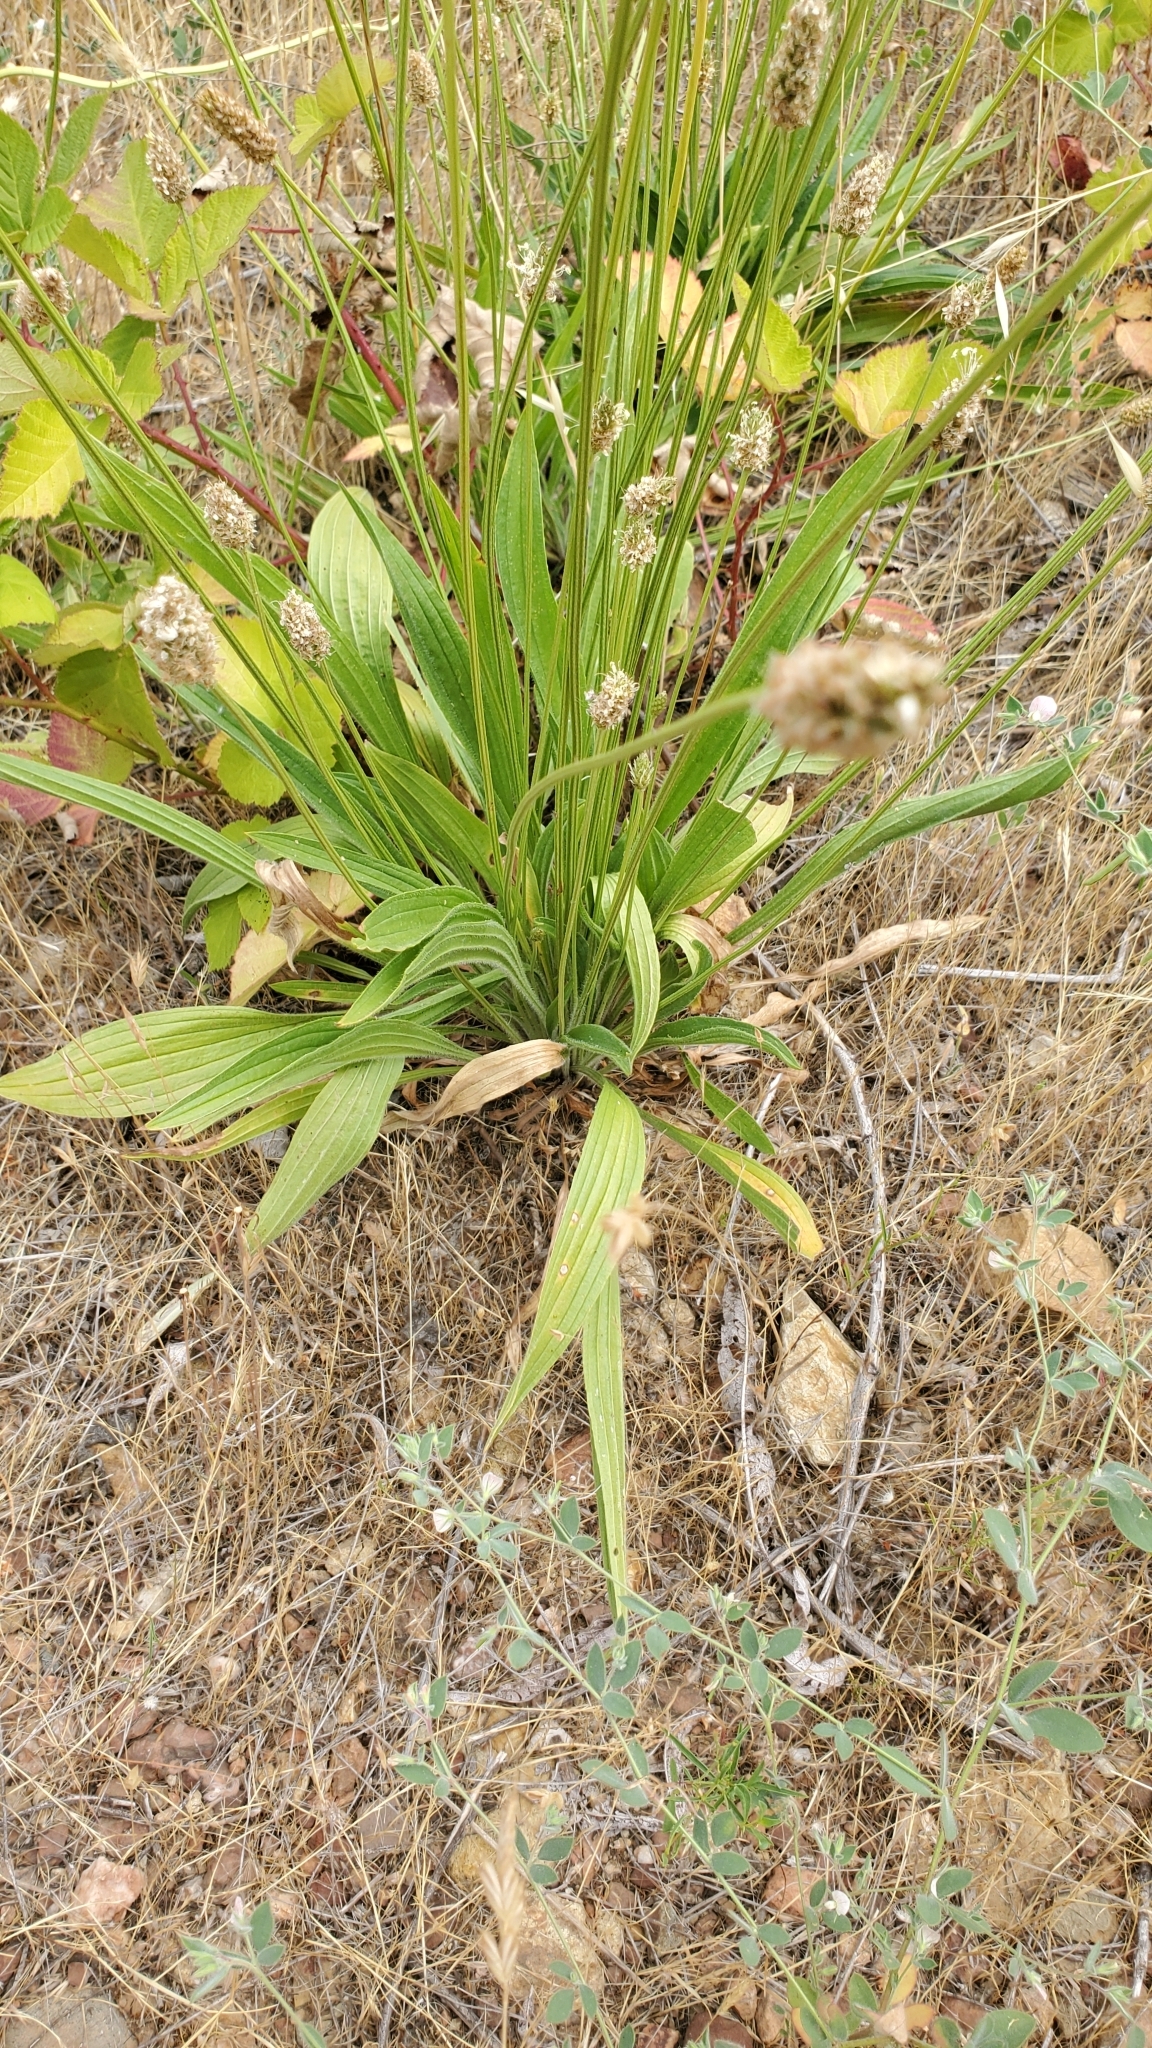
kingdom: Plantae
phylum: Tracheophyta
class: Magnoliopsida
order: Lamiales
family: Plantaginaceae
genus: Plantago
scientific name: Plantago lanceolata
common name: Ribwort plantain
